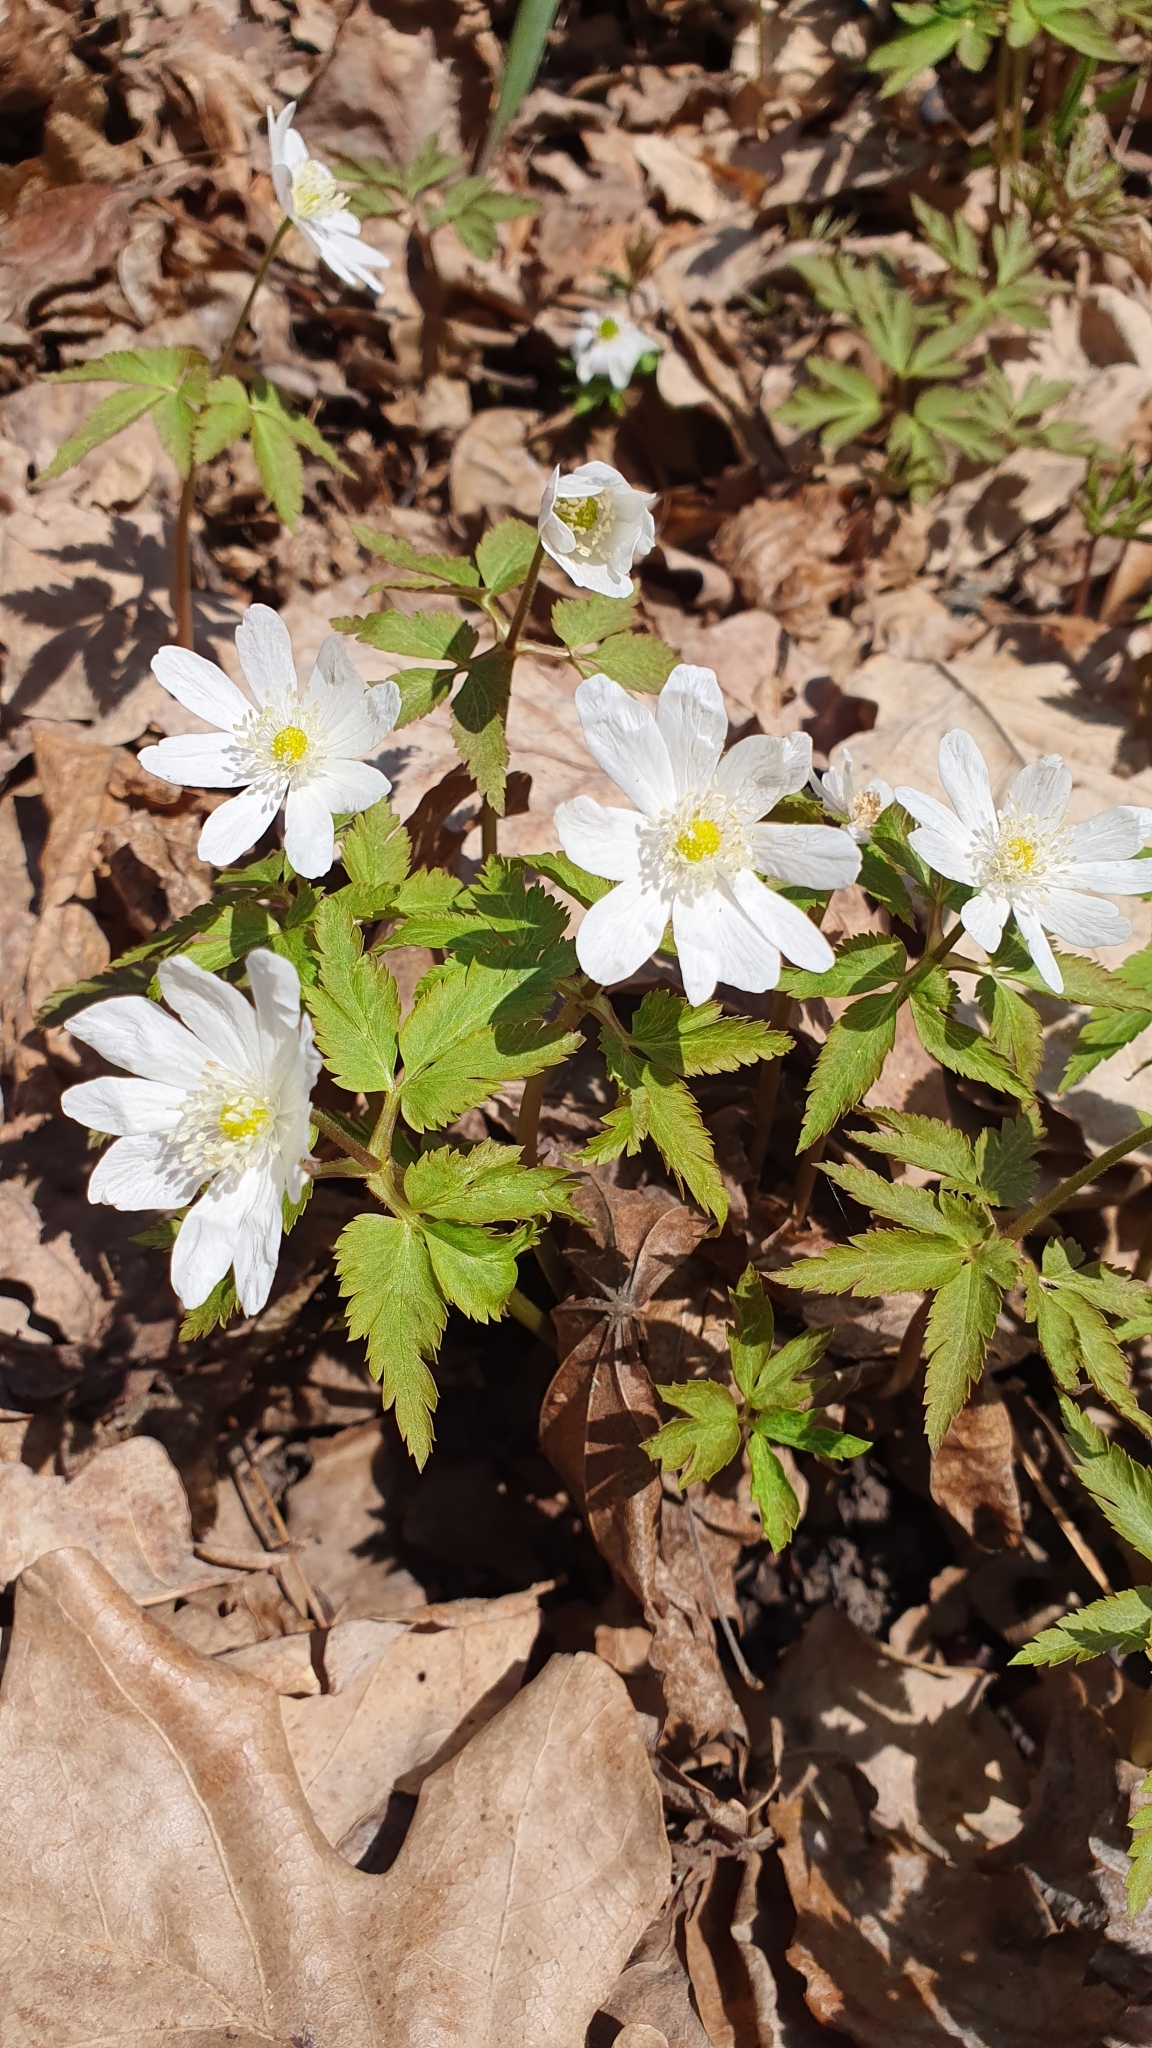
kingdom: Plantae
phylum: Tracheophyta
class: Magnoliopsida
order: Ranunculales
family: Ranunculaceae
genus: Anemone
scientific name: Anemone altaica
